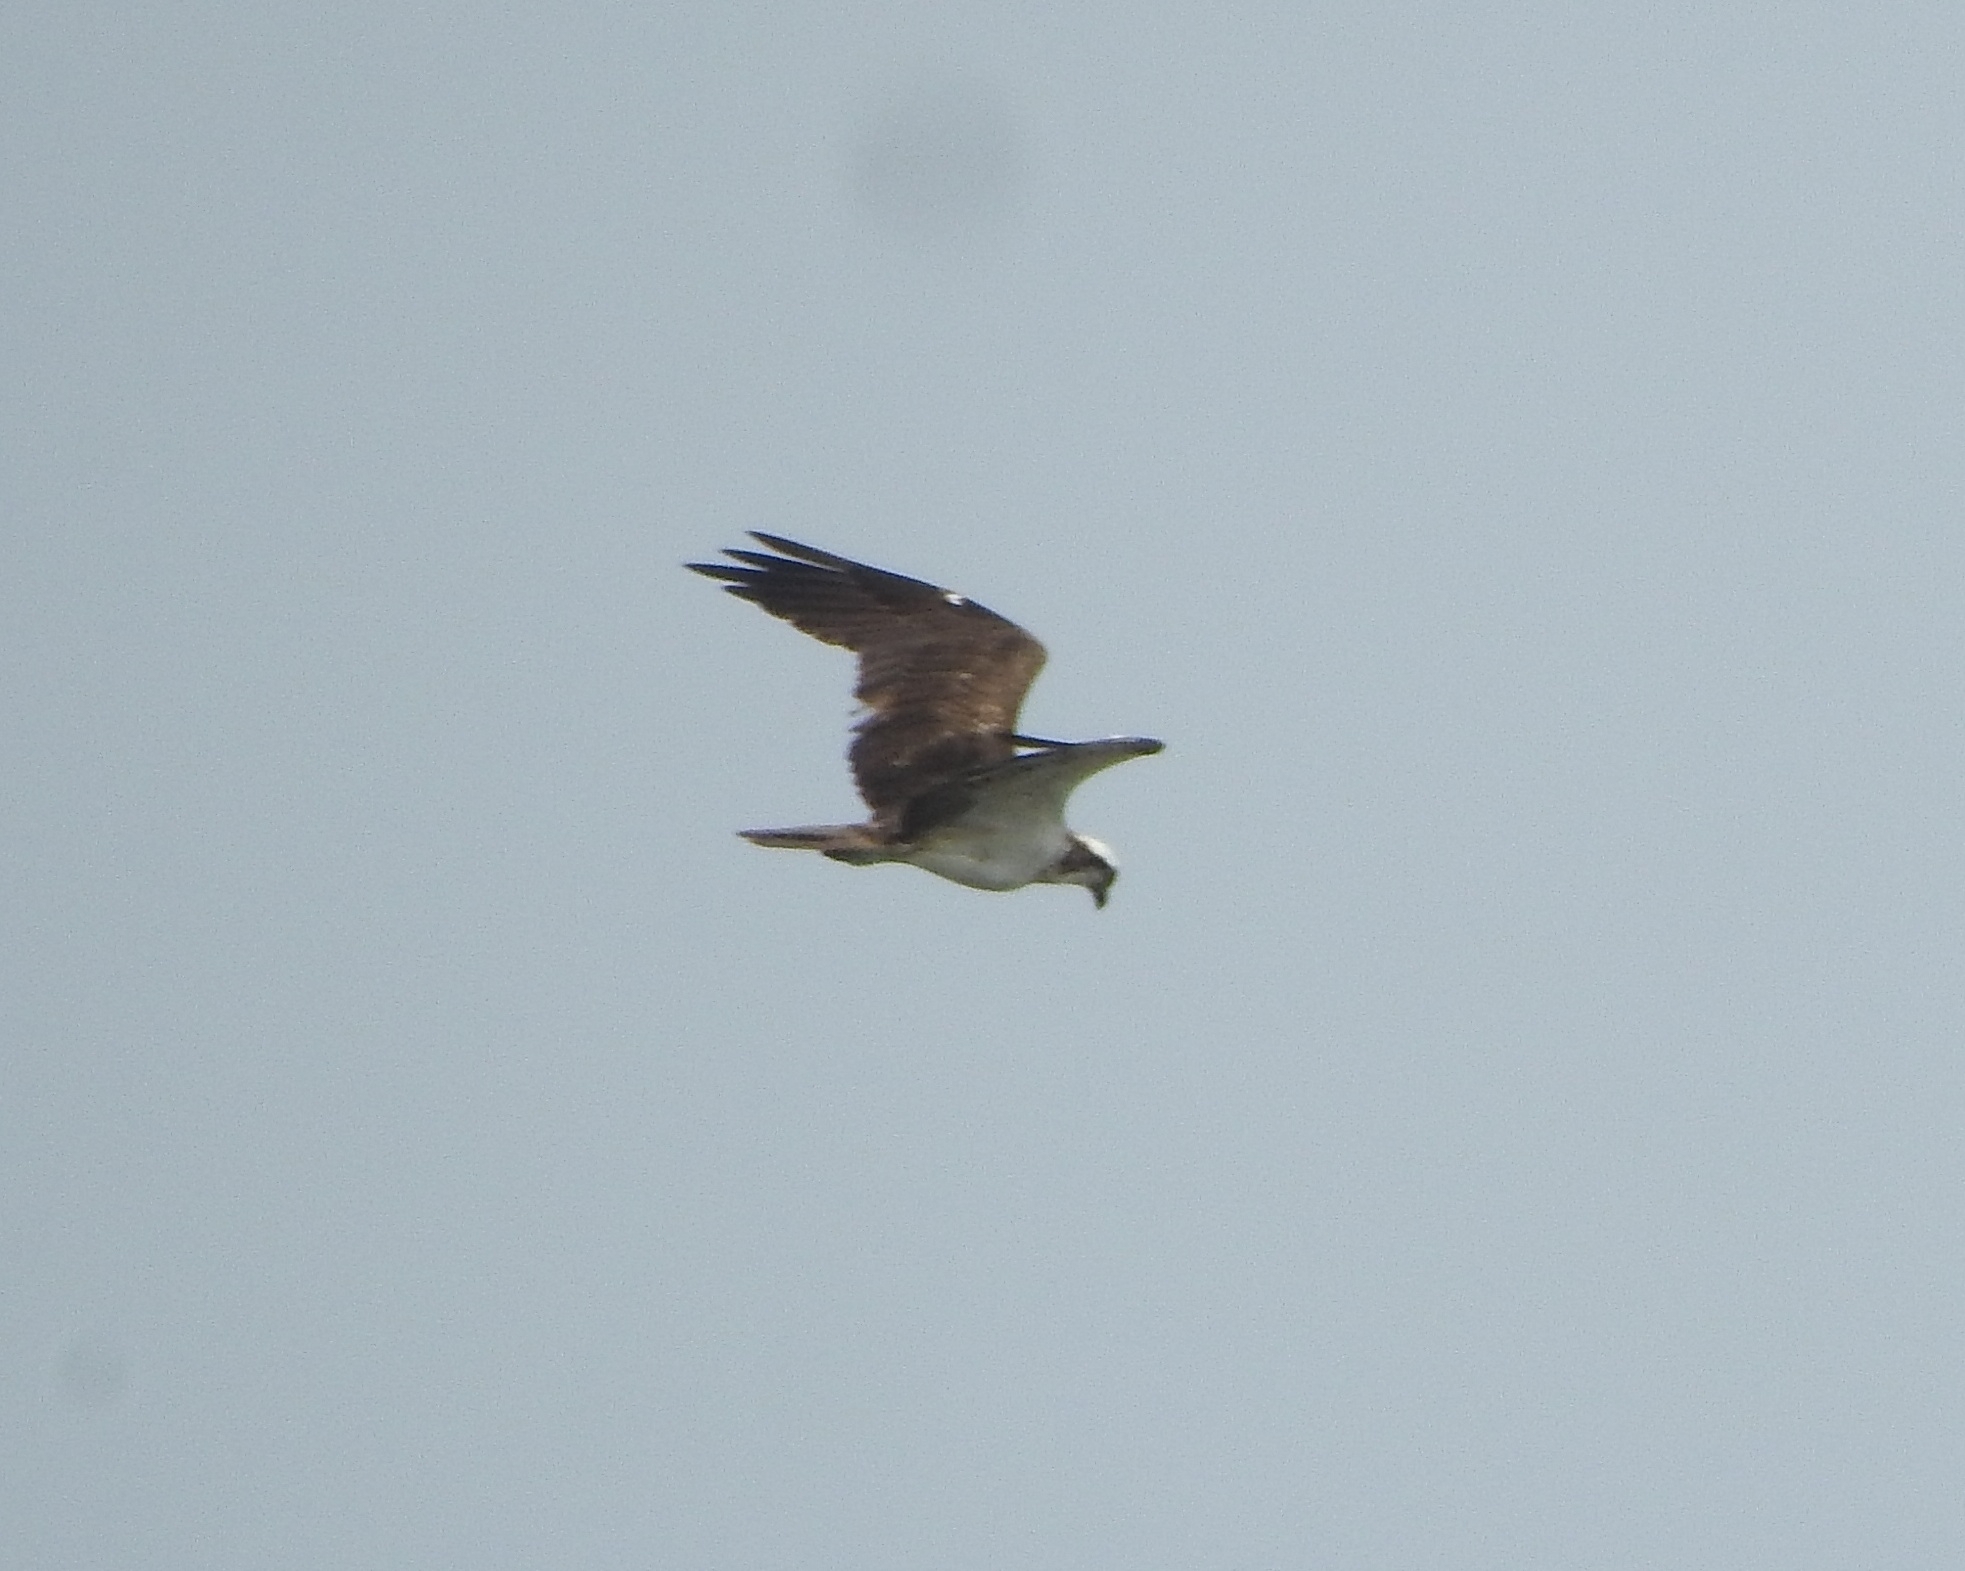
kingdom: Animalia
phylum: Chordata
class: Aves
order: Accipitriformes
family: Pandionidae
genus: Pandion
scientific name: Pandion haliaetus
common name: Osprey
